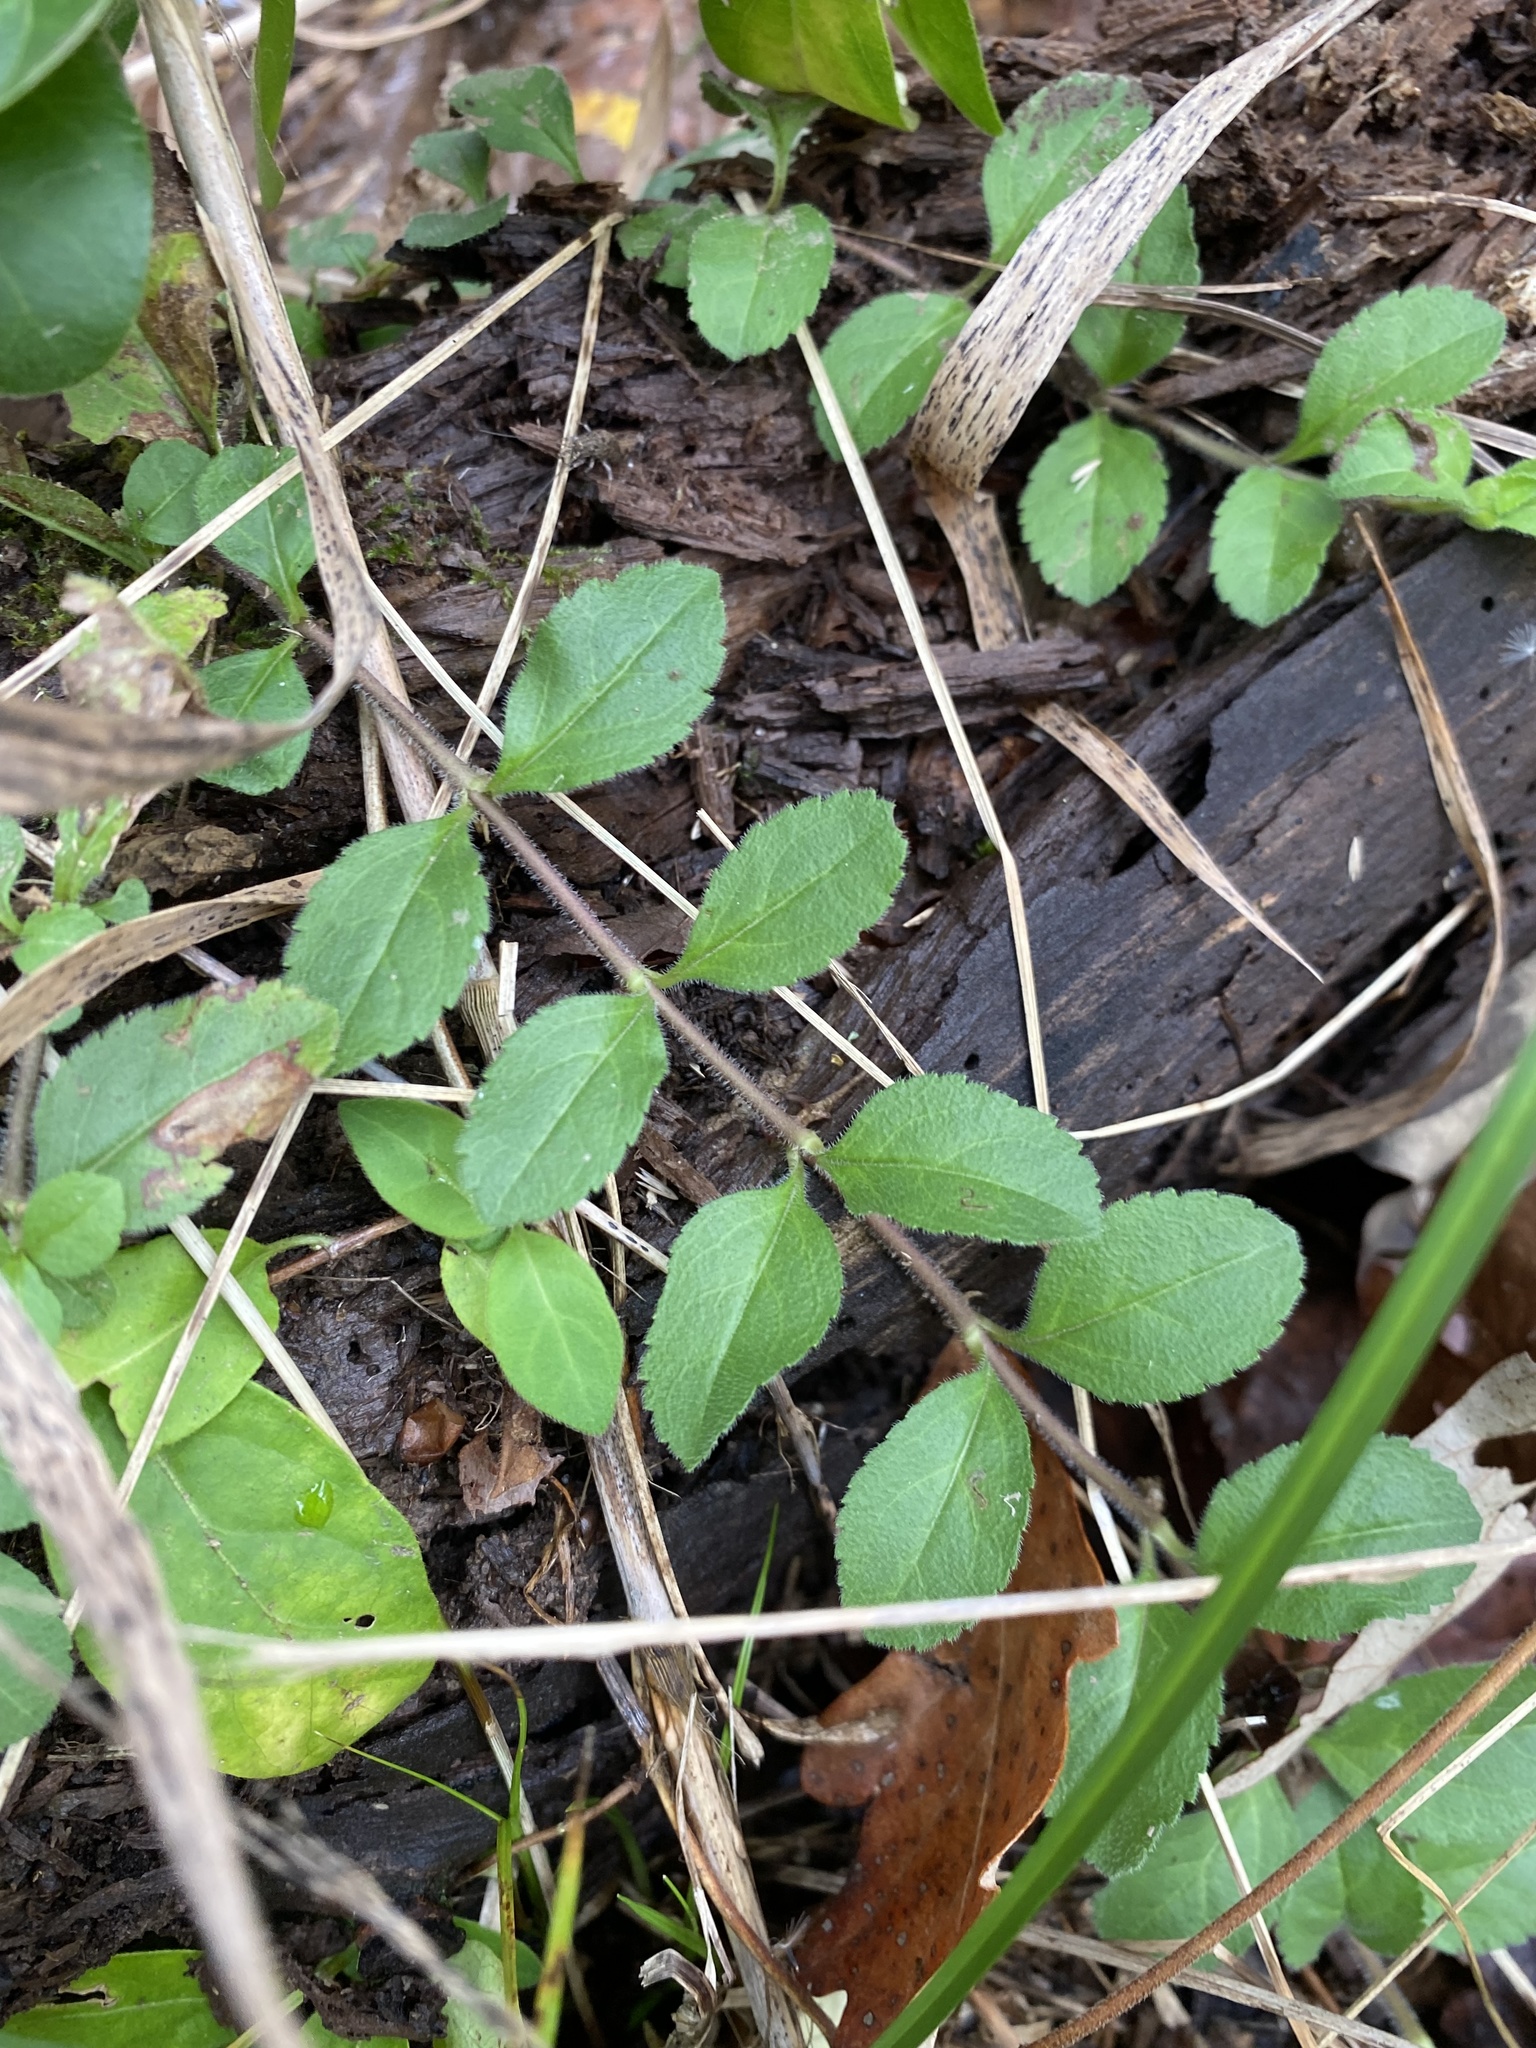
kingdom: Plantae
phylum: Tracheophyta
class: Magnoliopsida
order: Lamiales
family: Plantaginaceae
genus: Veronica
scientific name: Veronica officinalis
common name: Common speedwell
